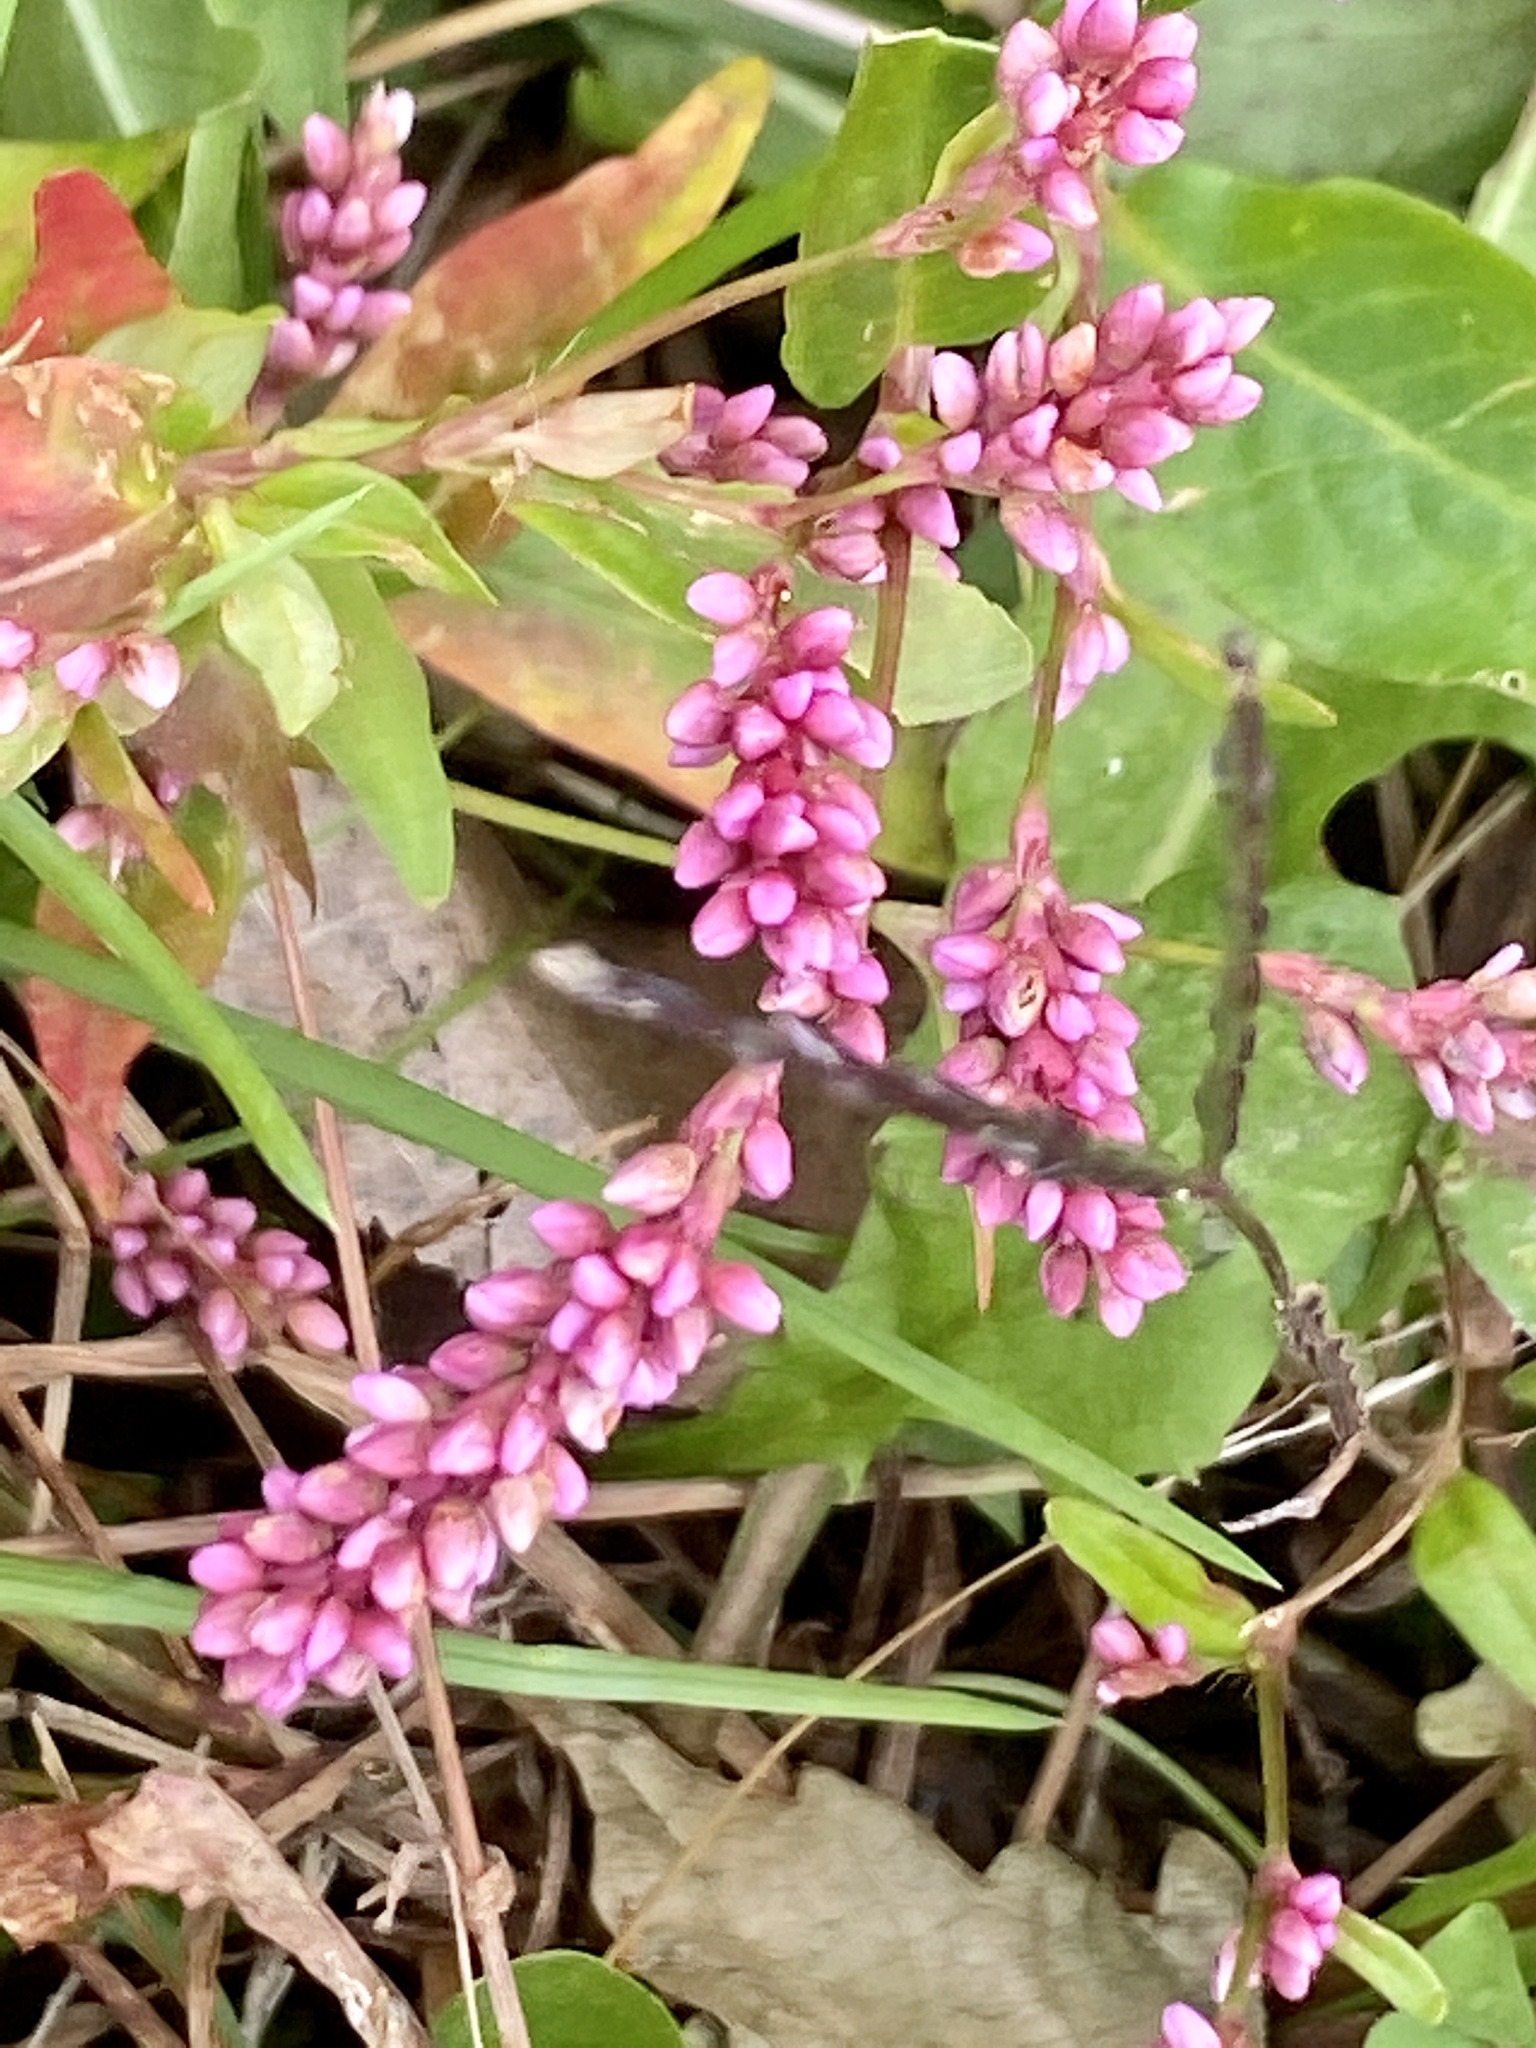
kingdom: Plantae
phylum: Tracheophyta
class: Magnoliopsida
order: Caryophyllales
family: Polygonaceae
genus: Persicaria
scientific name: Persicaria longiseta
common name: Bristly lady's-thumb
